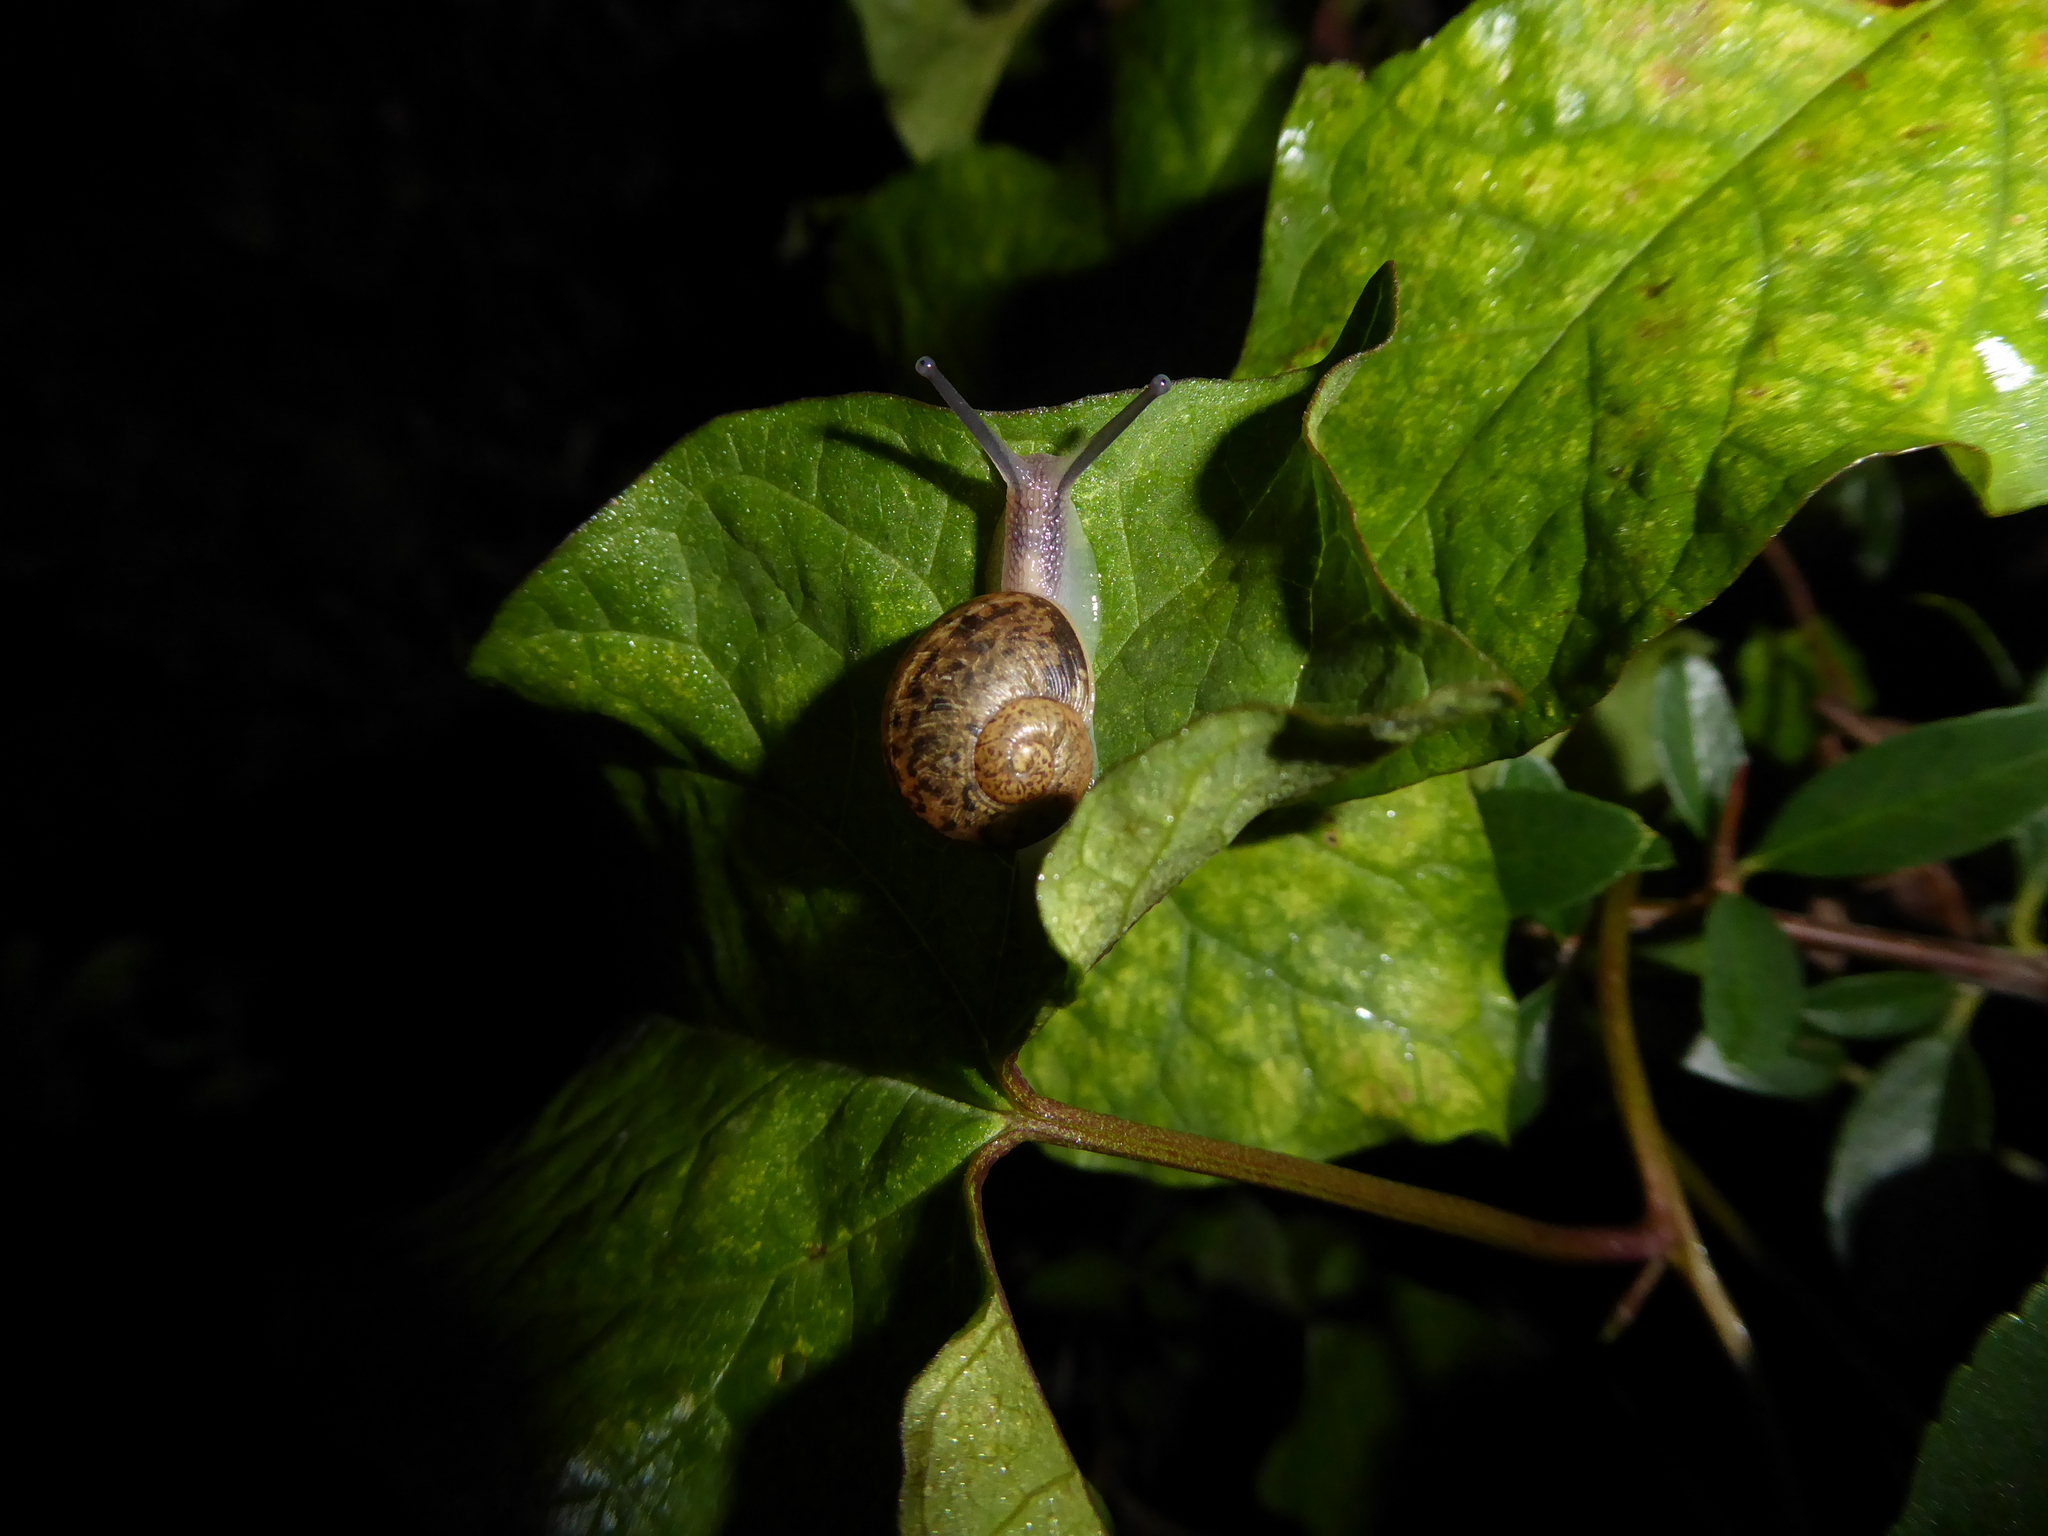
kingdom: Animalia
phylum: Mollusca
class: Gastropoda
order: Stylommatophora
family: Helicidae
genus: Cornu
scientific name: Cornu aspersum
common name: Brown garden snail
